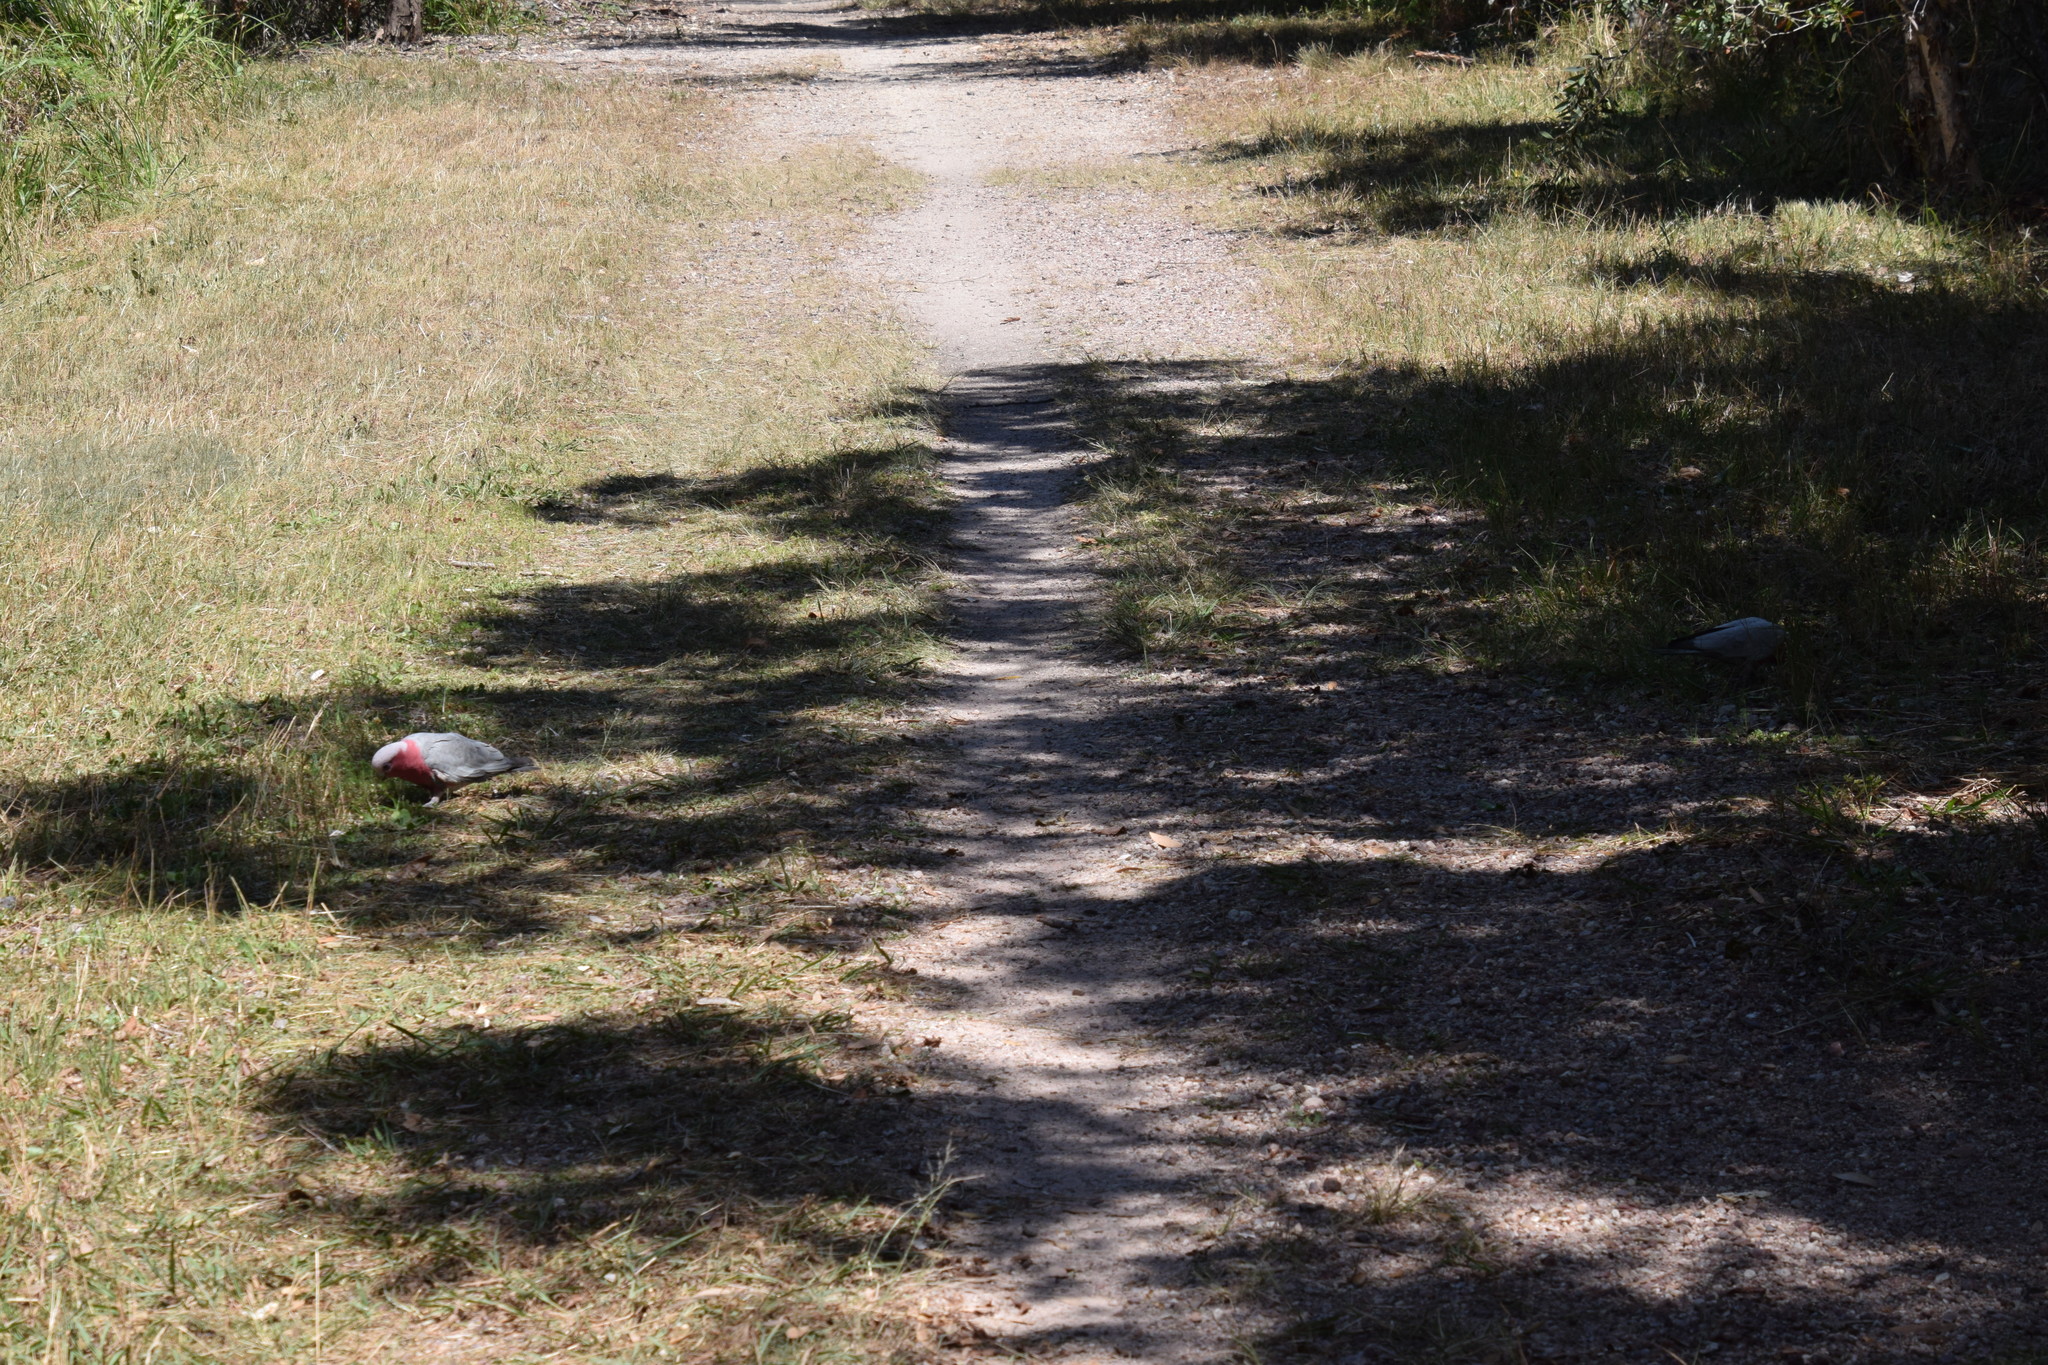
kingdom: Animalia
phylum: Chordata
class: Aves
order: Psittaciformes
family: Psittacidae
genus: Eolophus
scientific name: Eolophus roseicapilla
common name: Galah
